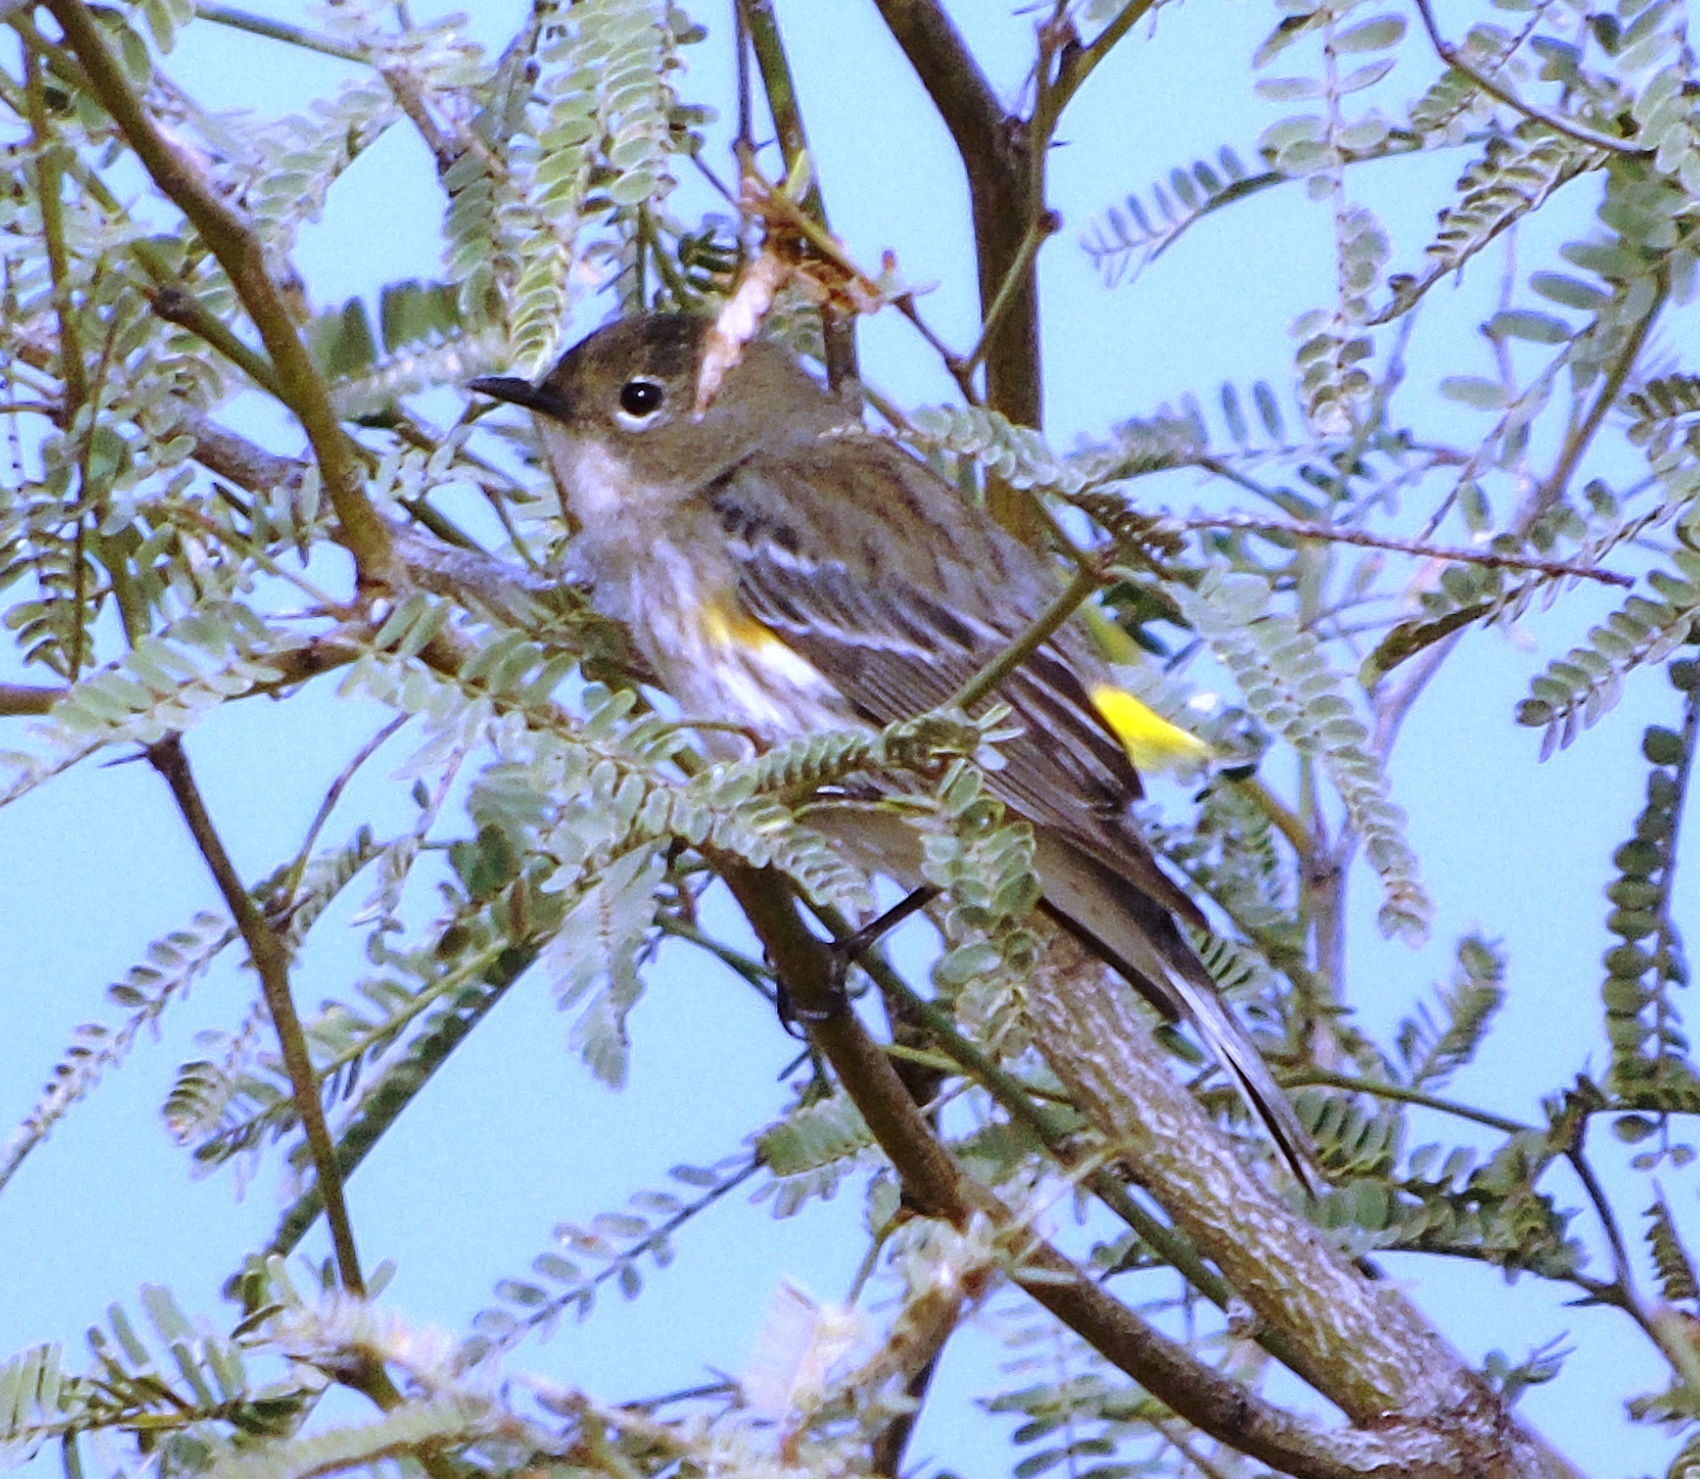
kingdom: Animalia
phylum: Chordata
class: Aves
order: Passeriformes
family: Parulidae
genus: Setophaga
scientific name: Setophaga coronata
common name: Myrtle warbler
